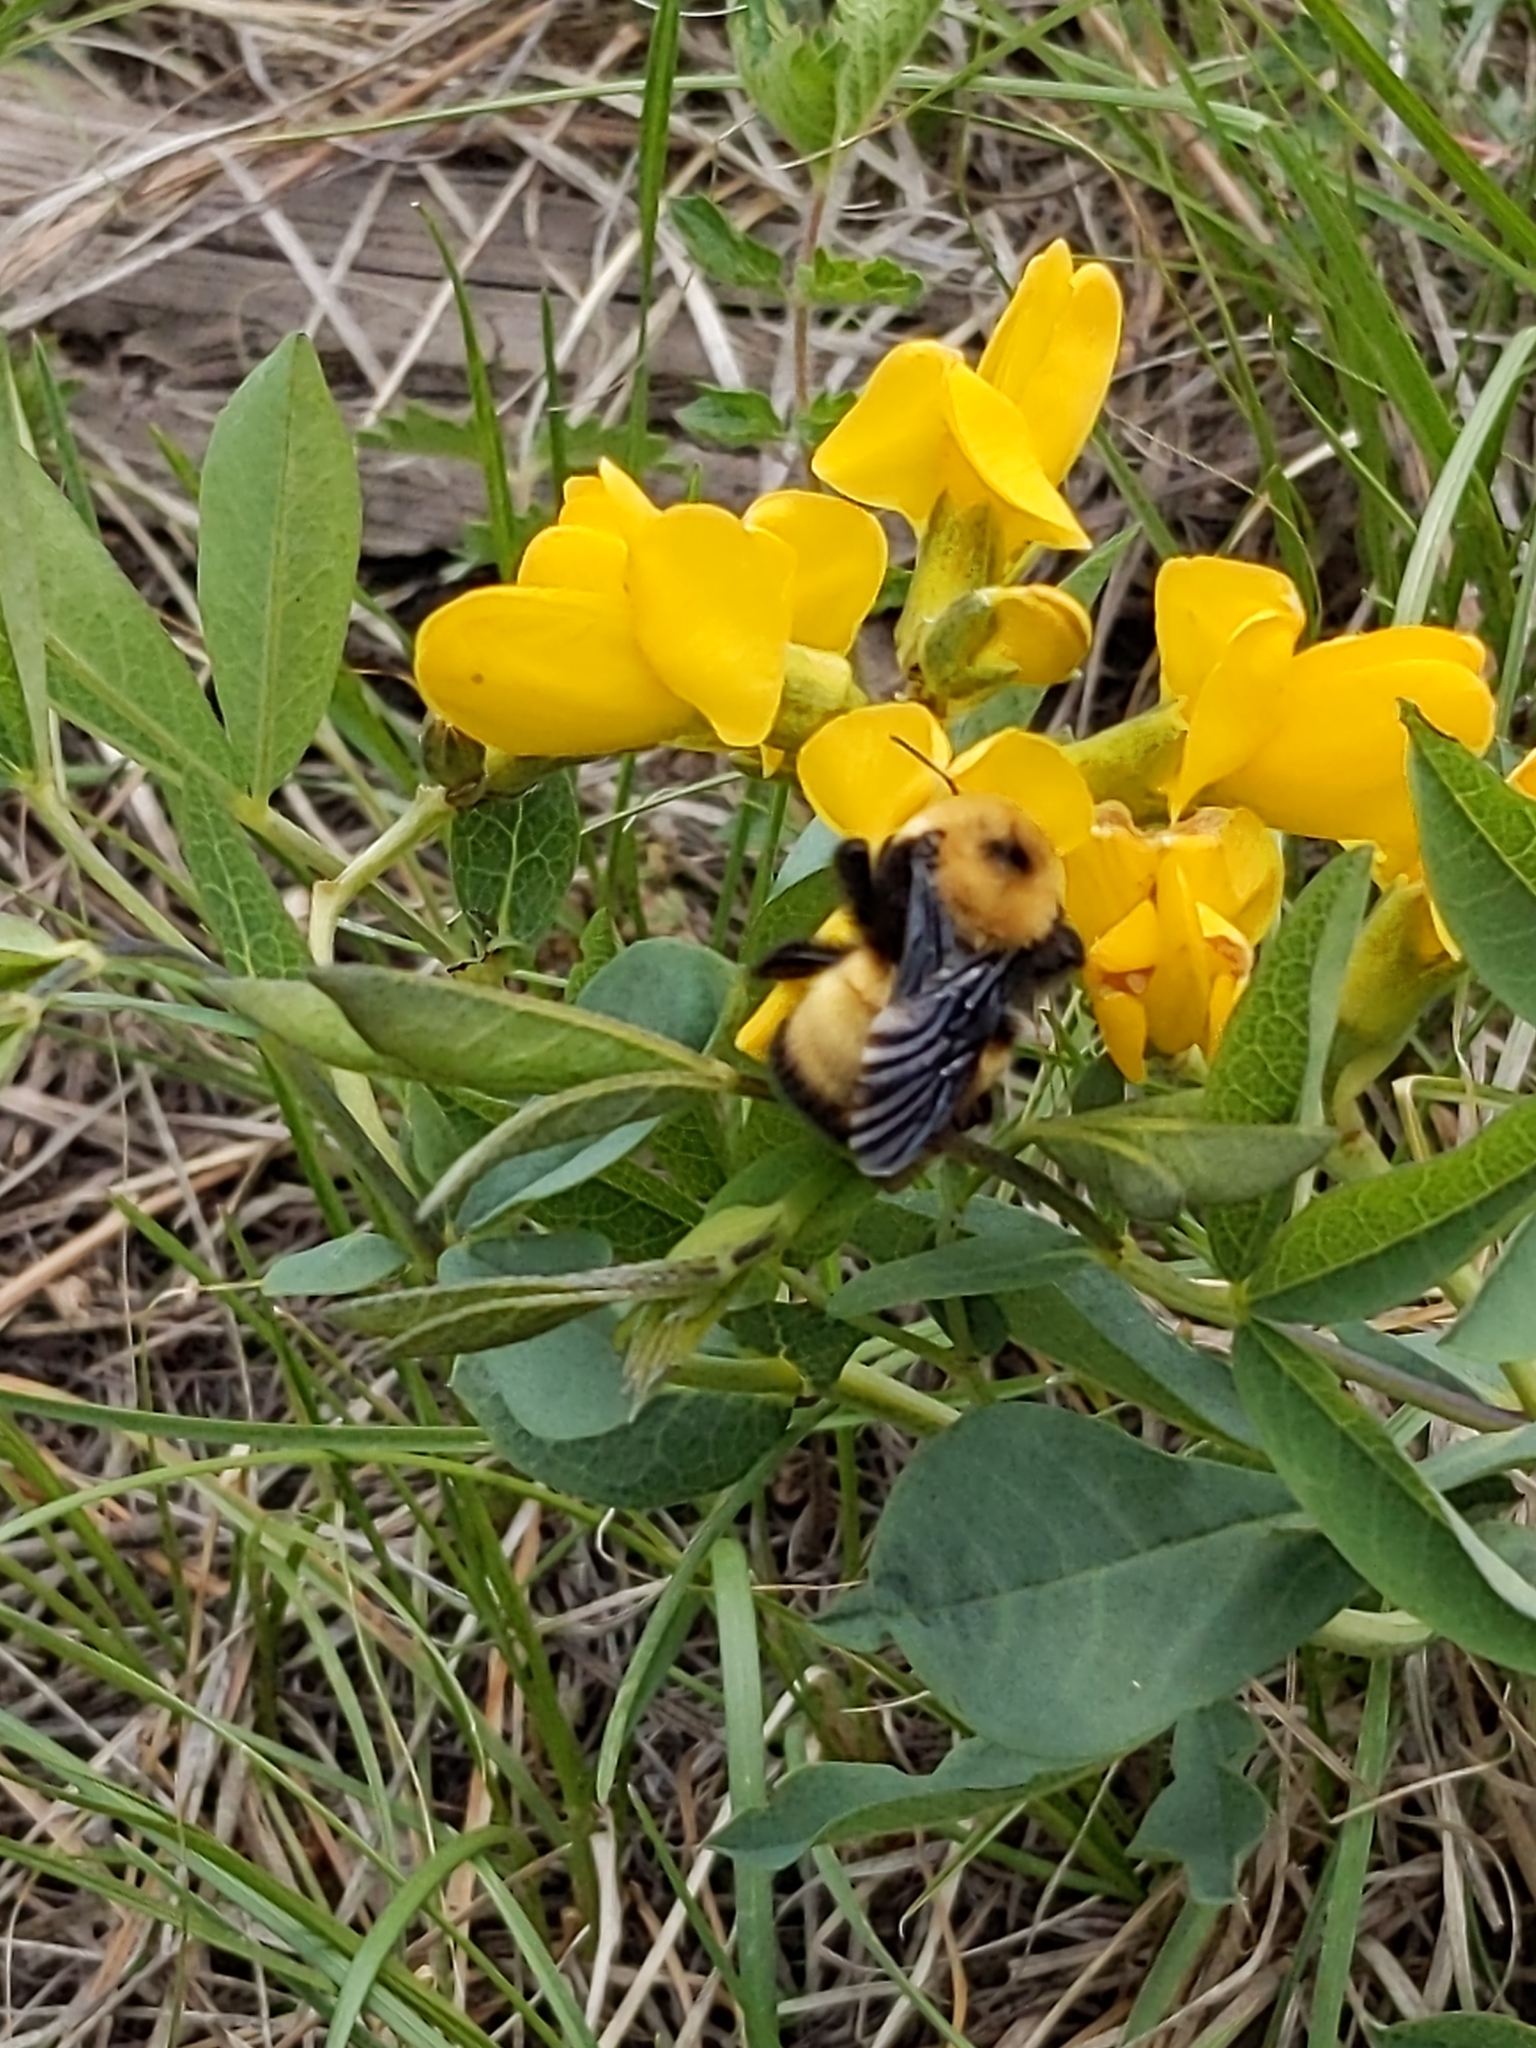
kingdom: Animalia
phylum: Arthropoda
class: Insecta
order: Hymenoptera
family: Apidae
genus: Bombus
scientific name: Bombus nevadensis
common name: Nevada bumble bee
